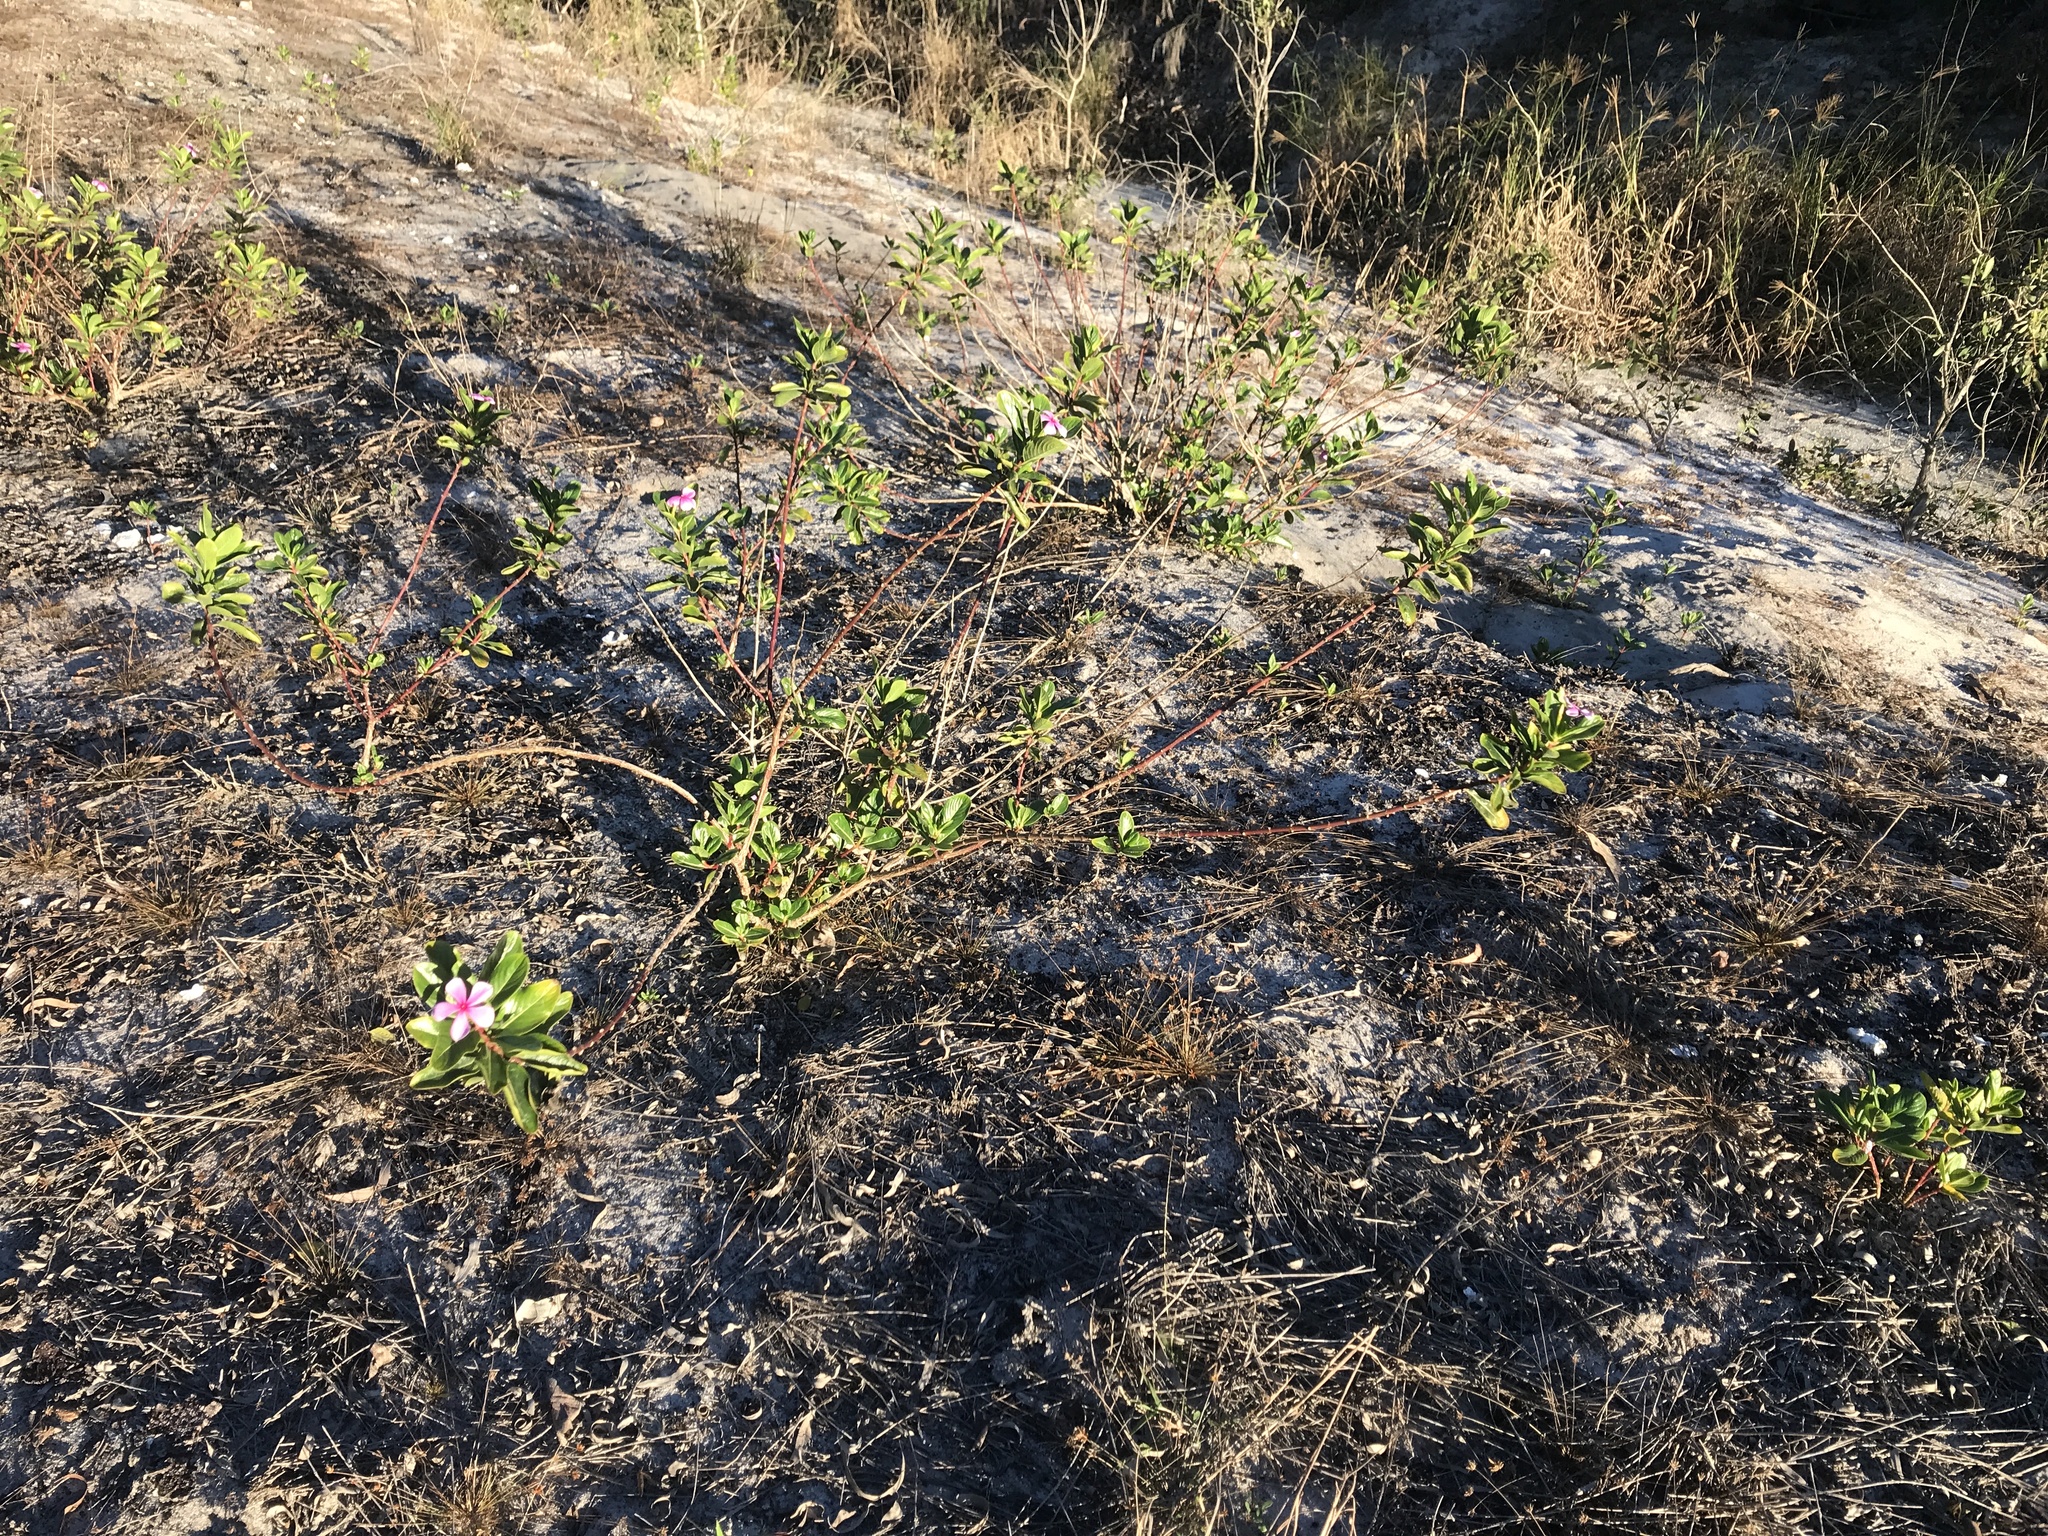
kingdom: Plantae
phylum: Tracheophyta
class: Magnoliopsida
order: Gentianales
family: Apocynaceae
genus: Catharanthus
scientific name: Catharanthus roseus
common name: Madagascar periwinkle
